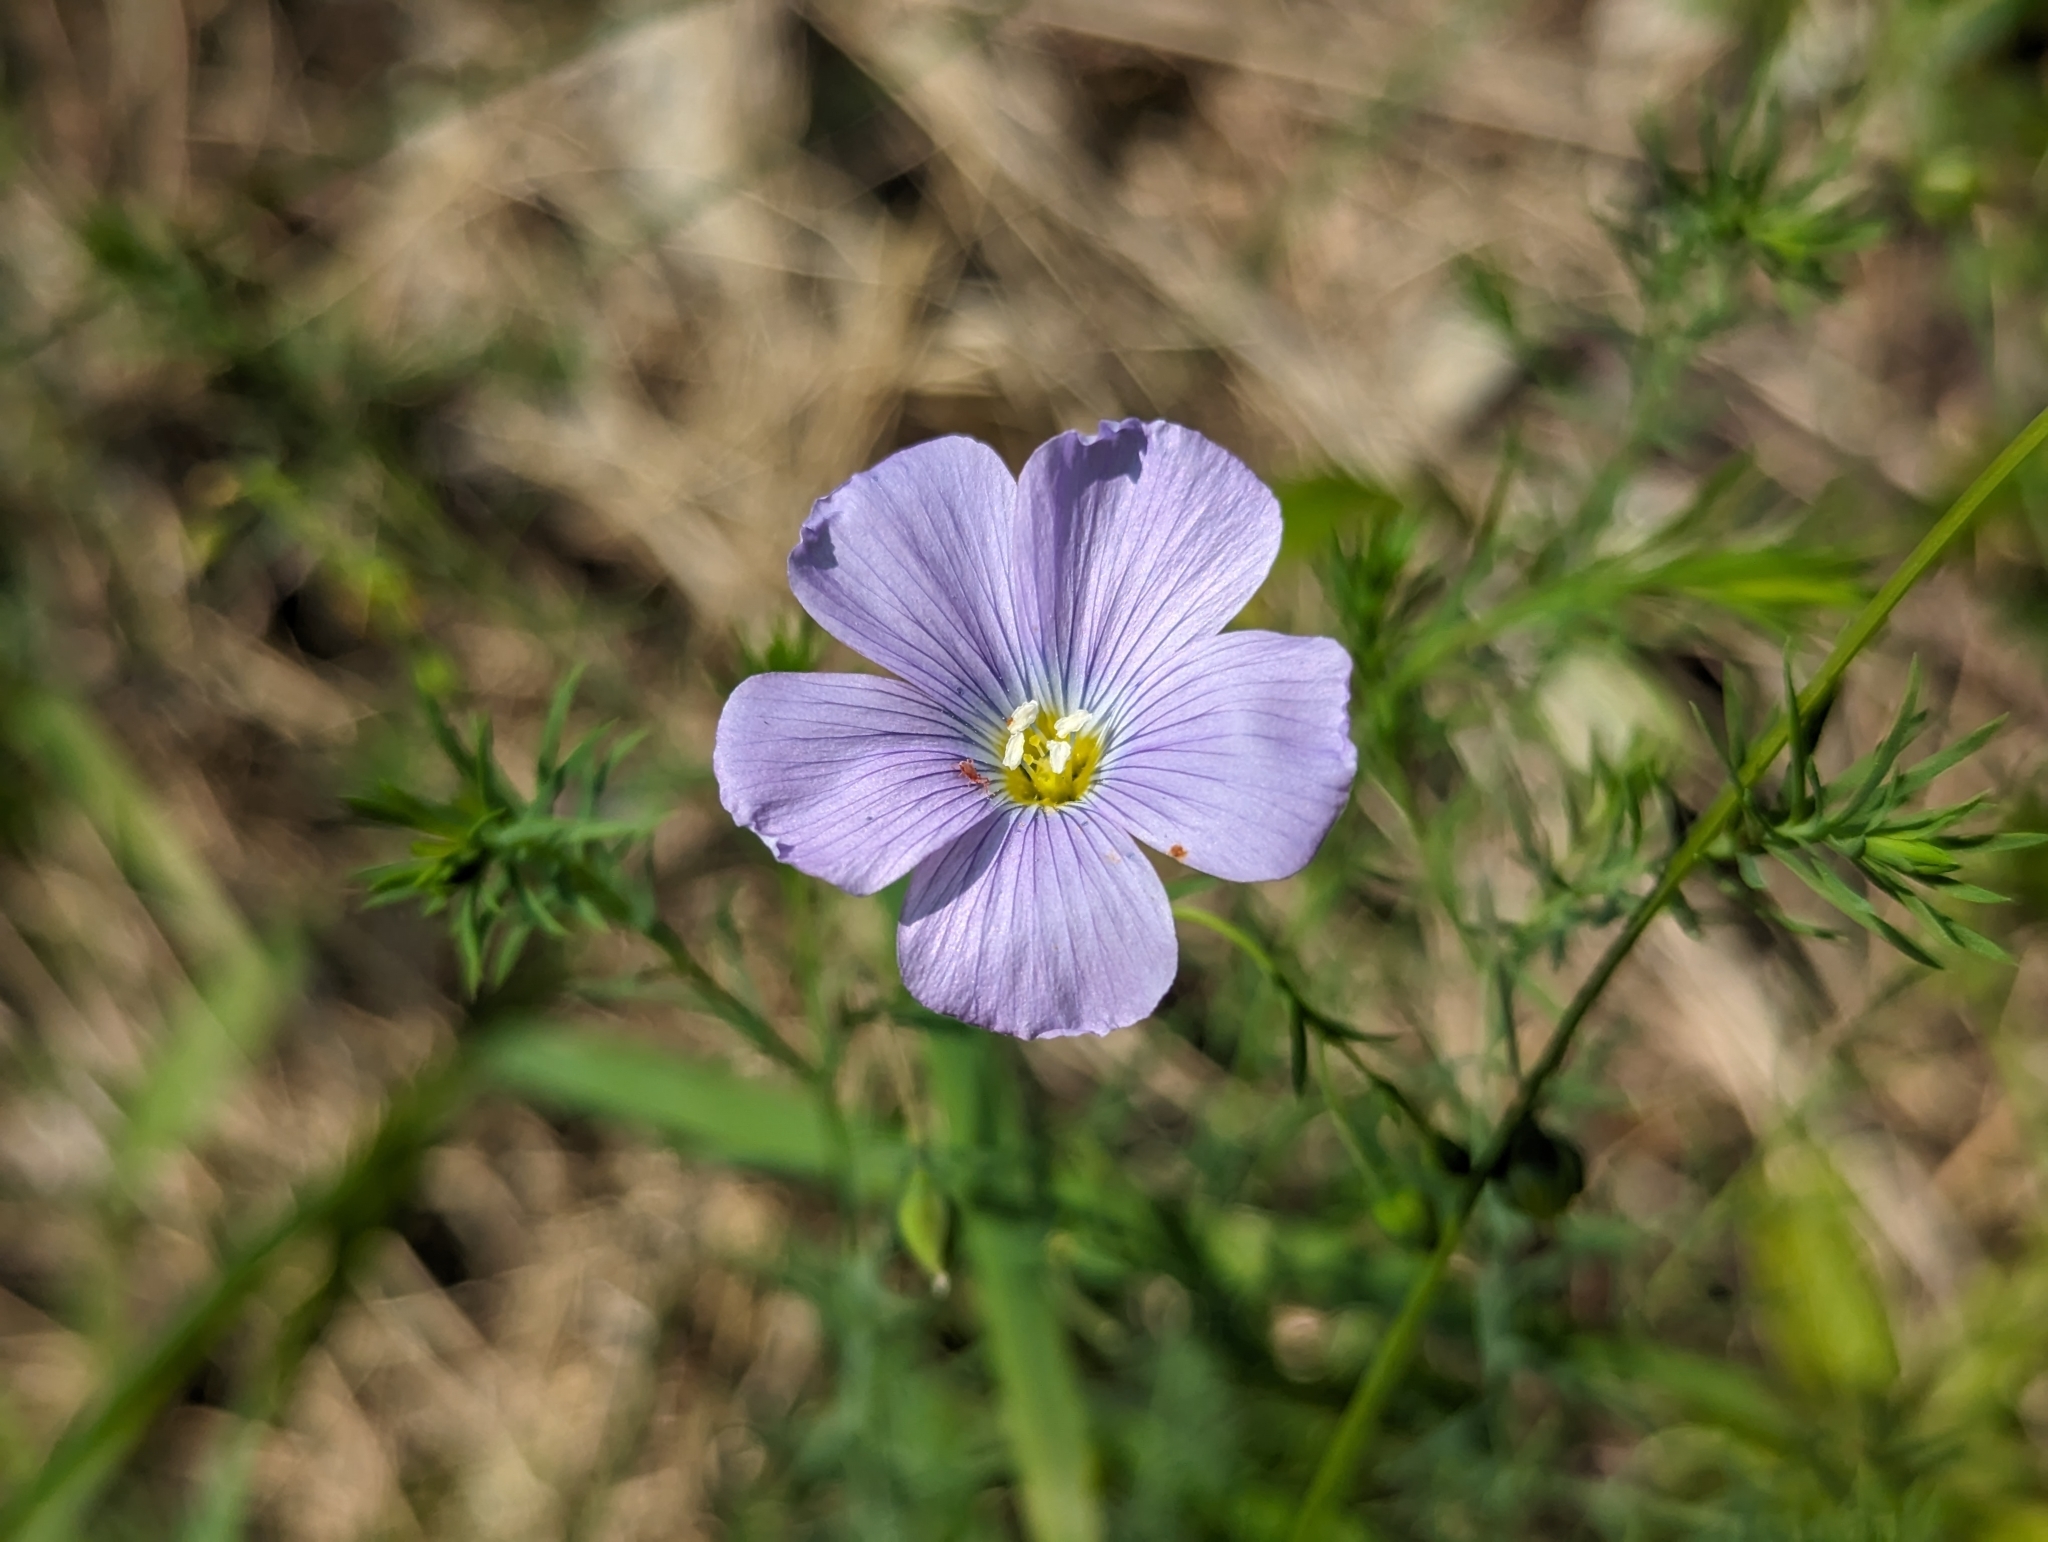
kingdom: Plantae
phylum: Tracheophyta
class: Magnoliopsida
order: Malpighiales
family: Linaceae
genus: Linum
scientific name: Linum alpinum
